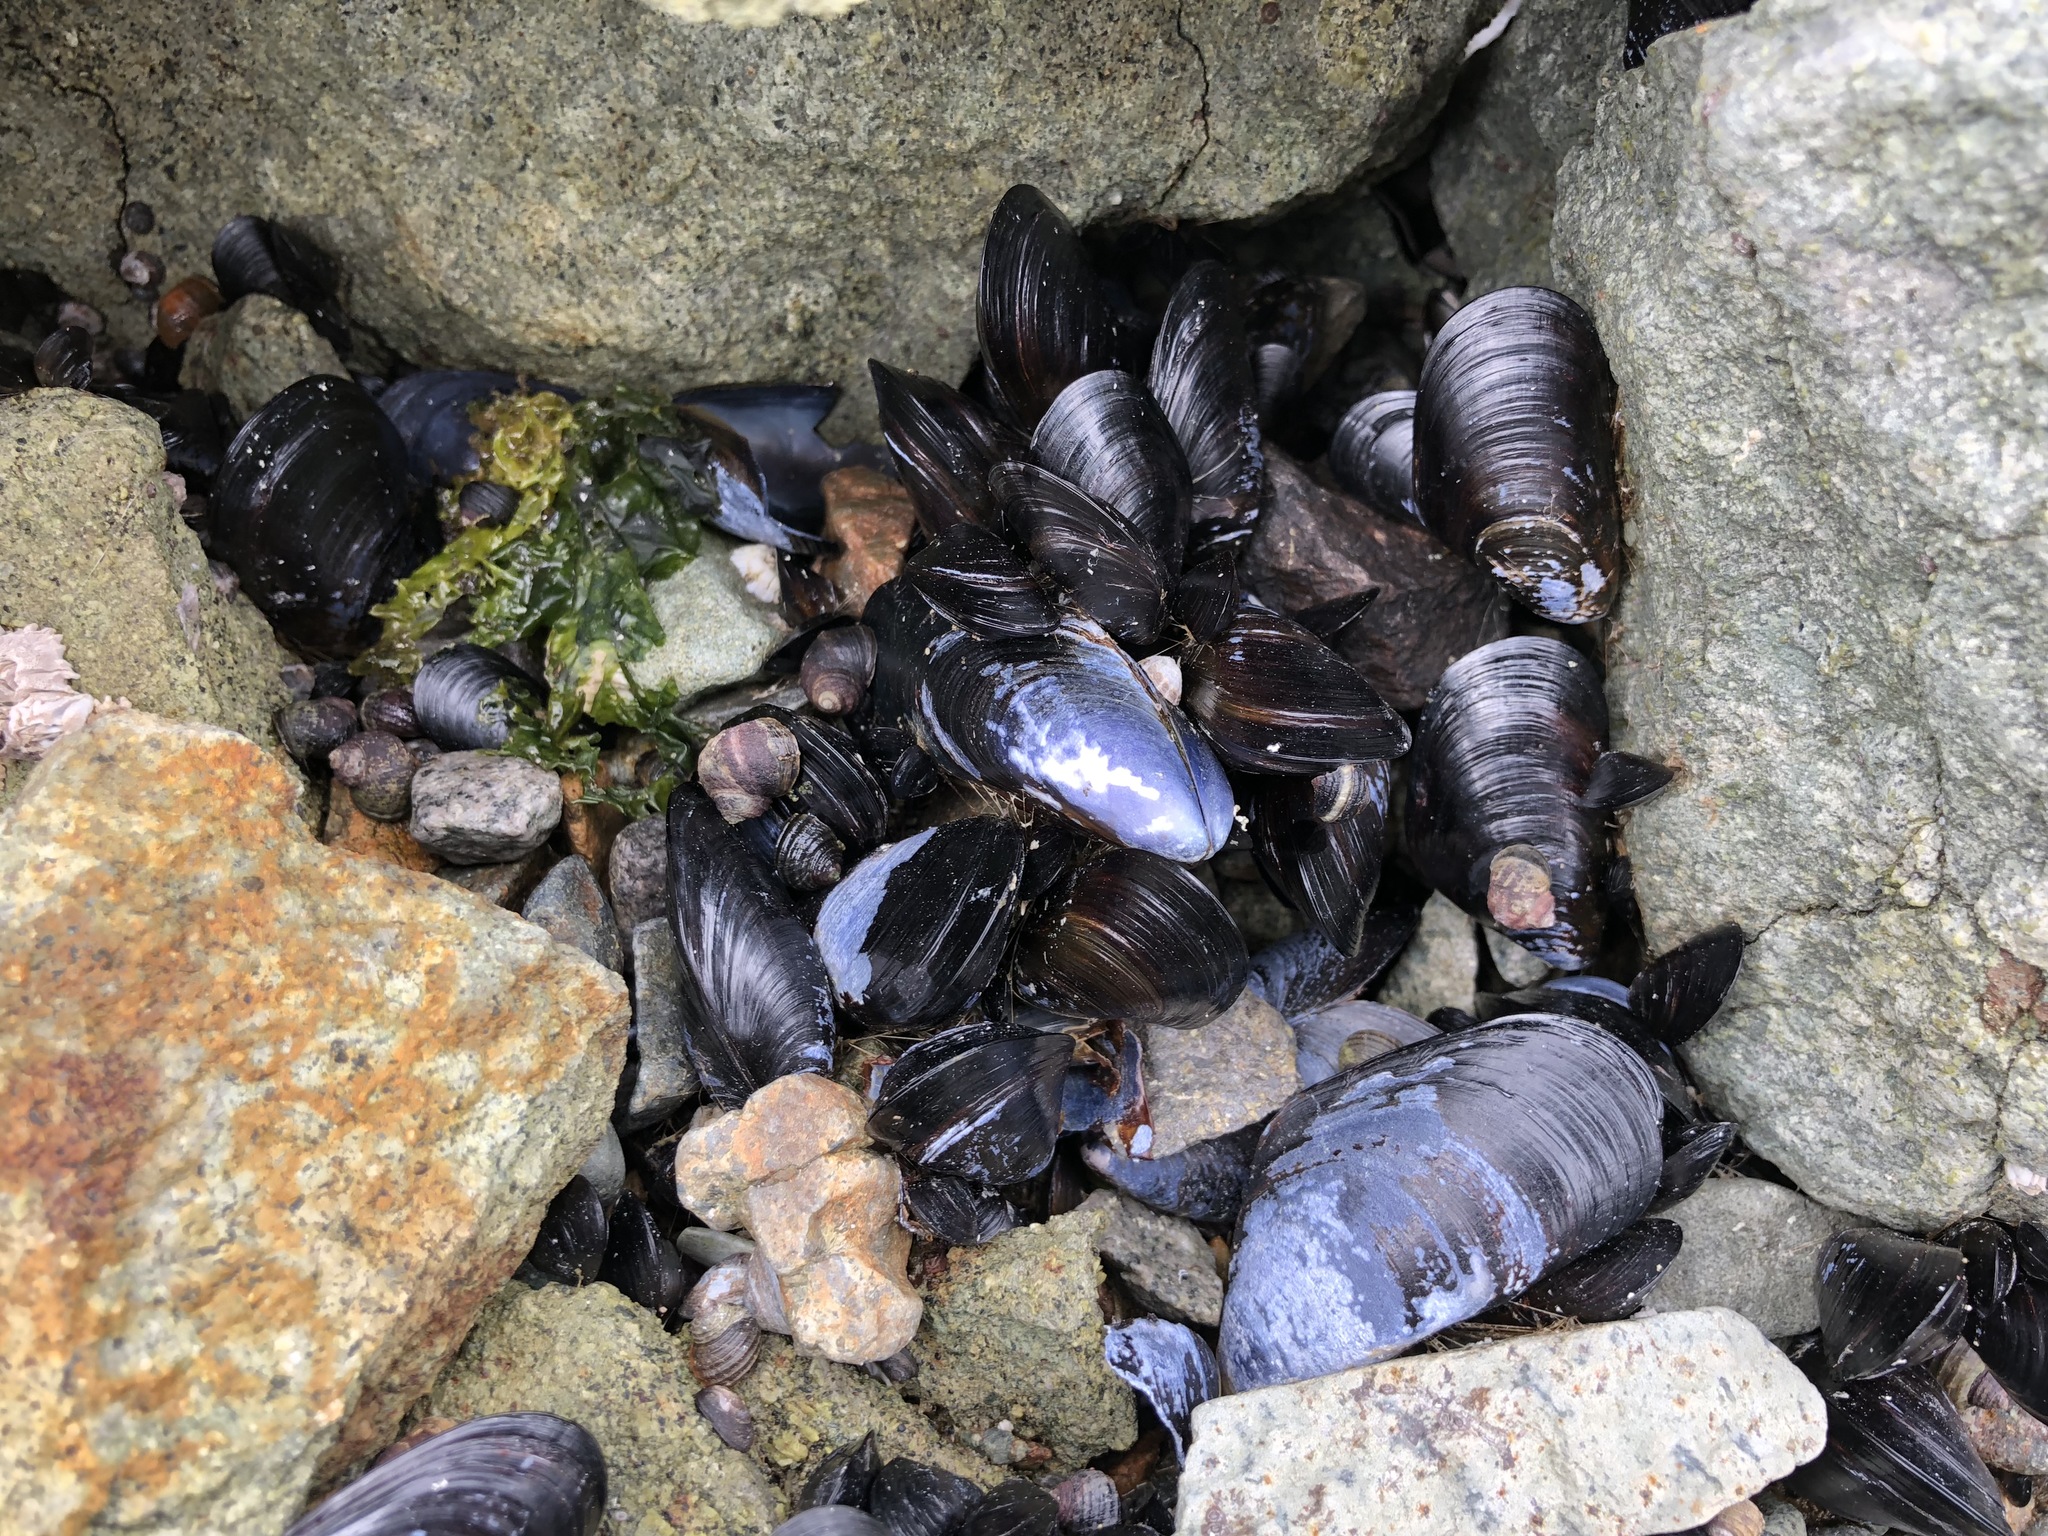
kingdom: Animalia
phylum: Mollusca
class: Bivalvia
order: Mytilida
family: Mytilidae
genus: Mytilus
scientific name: Mytilus trossulus
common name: Northern blue mussel
